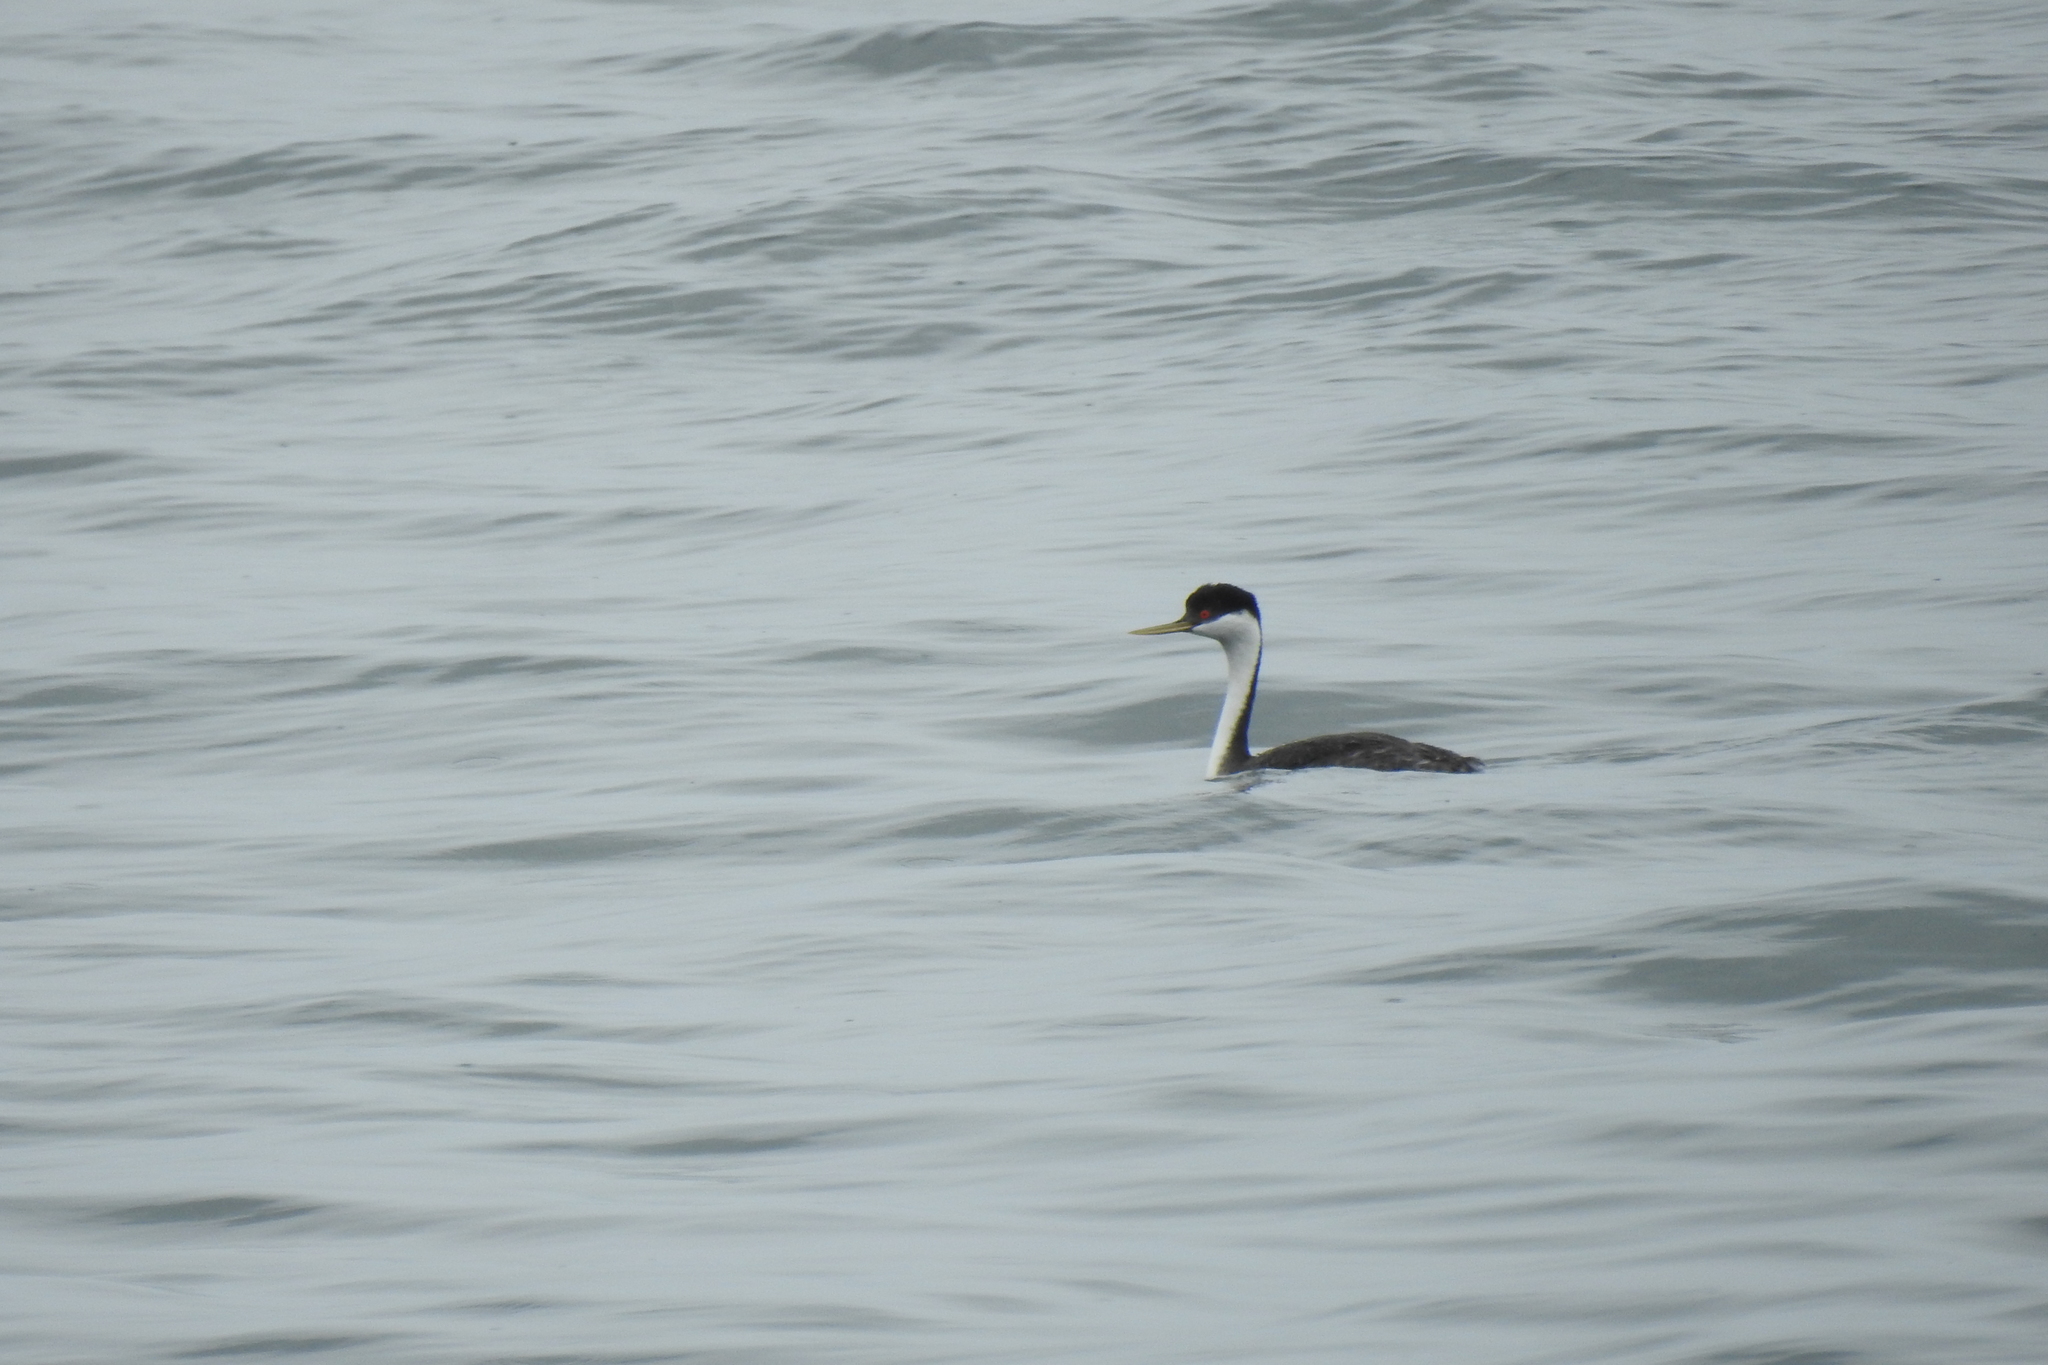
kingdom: Animalia
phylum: Chordata
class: Aves
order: Podicipediformes
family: Podicipedidae
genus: Aechmophorus
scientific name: Aechmophorus occidentalis
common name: Western grebe
